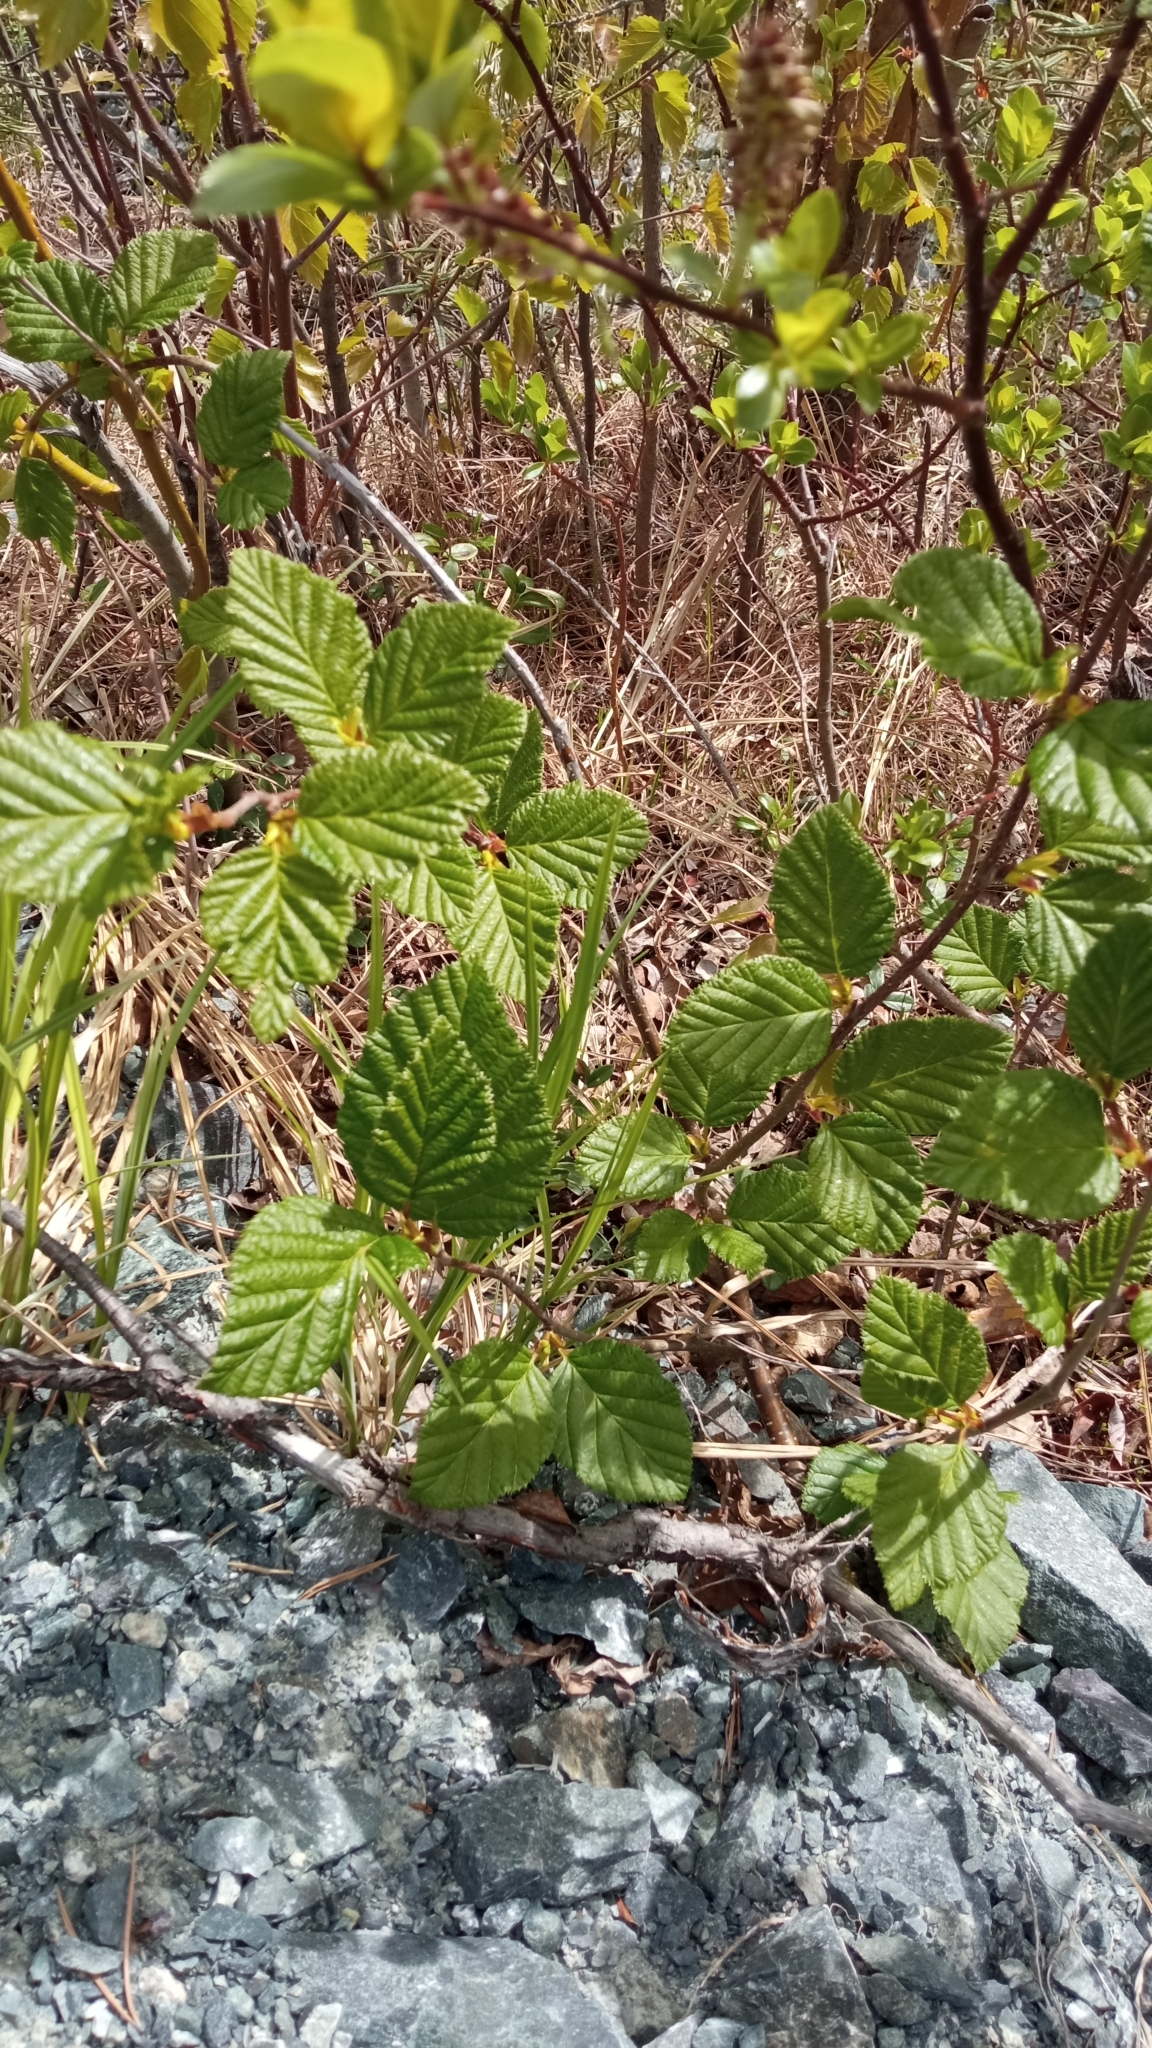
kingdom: Plantae
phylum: Tracheophyta
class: Magnoliopsida
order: Fagales
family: Betulaceae
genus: Alnus
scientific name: Alnus alnobetula
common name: Green alder
